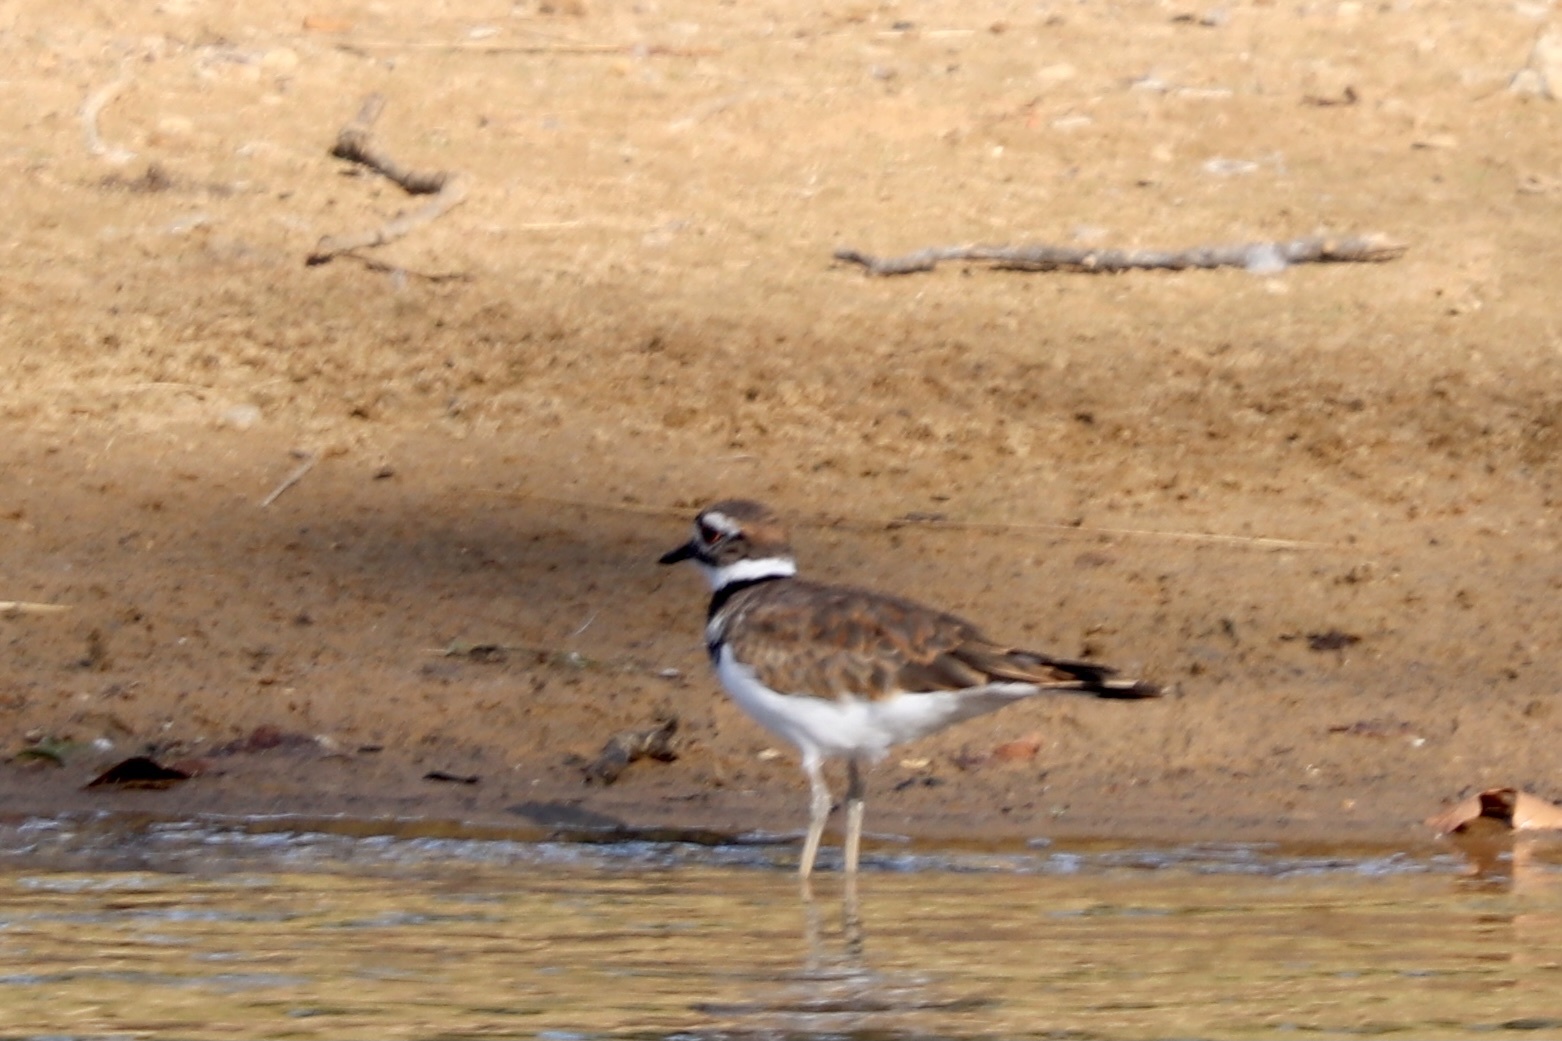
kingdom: Animalia
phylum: Chordata
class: Aves
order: Charadriiformes
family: Charadriidae
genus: Charadrius
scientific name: Charadrius vociferus
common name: Killdeer
